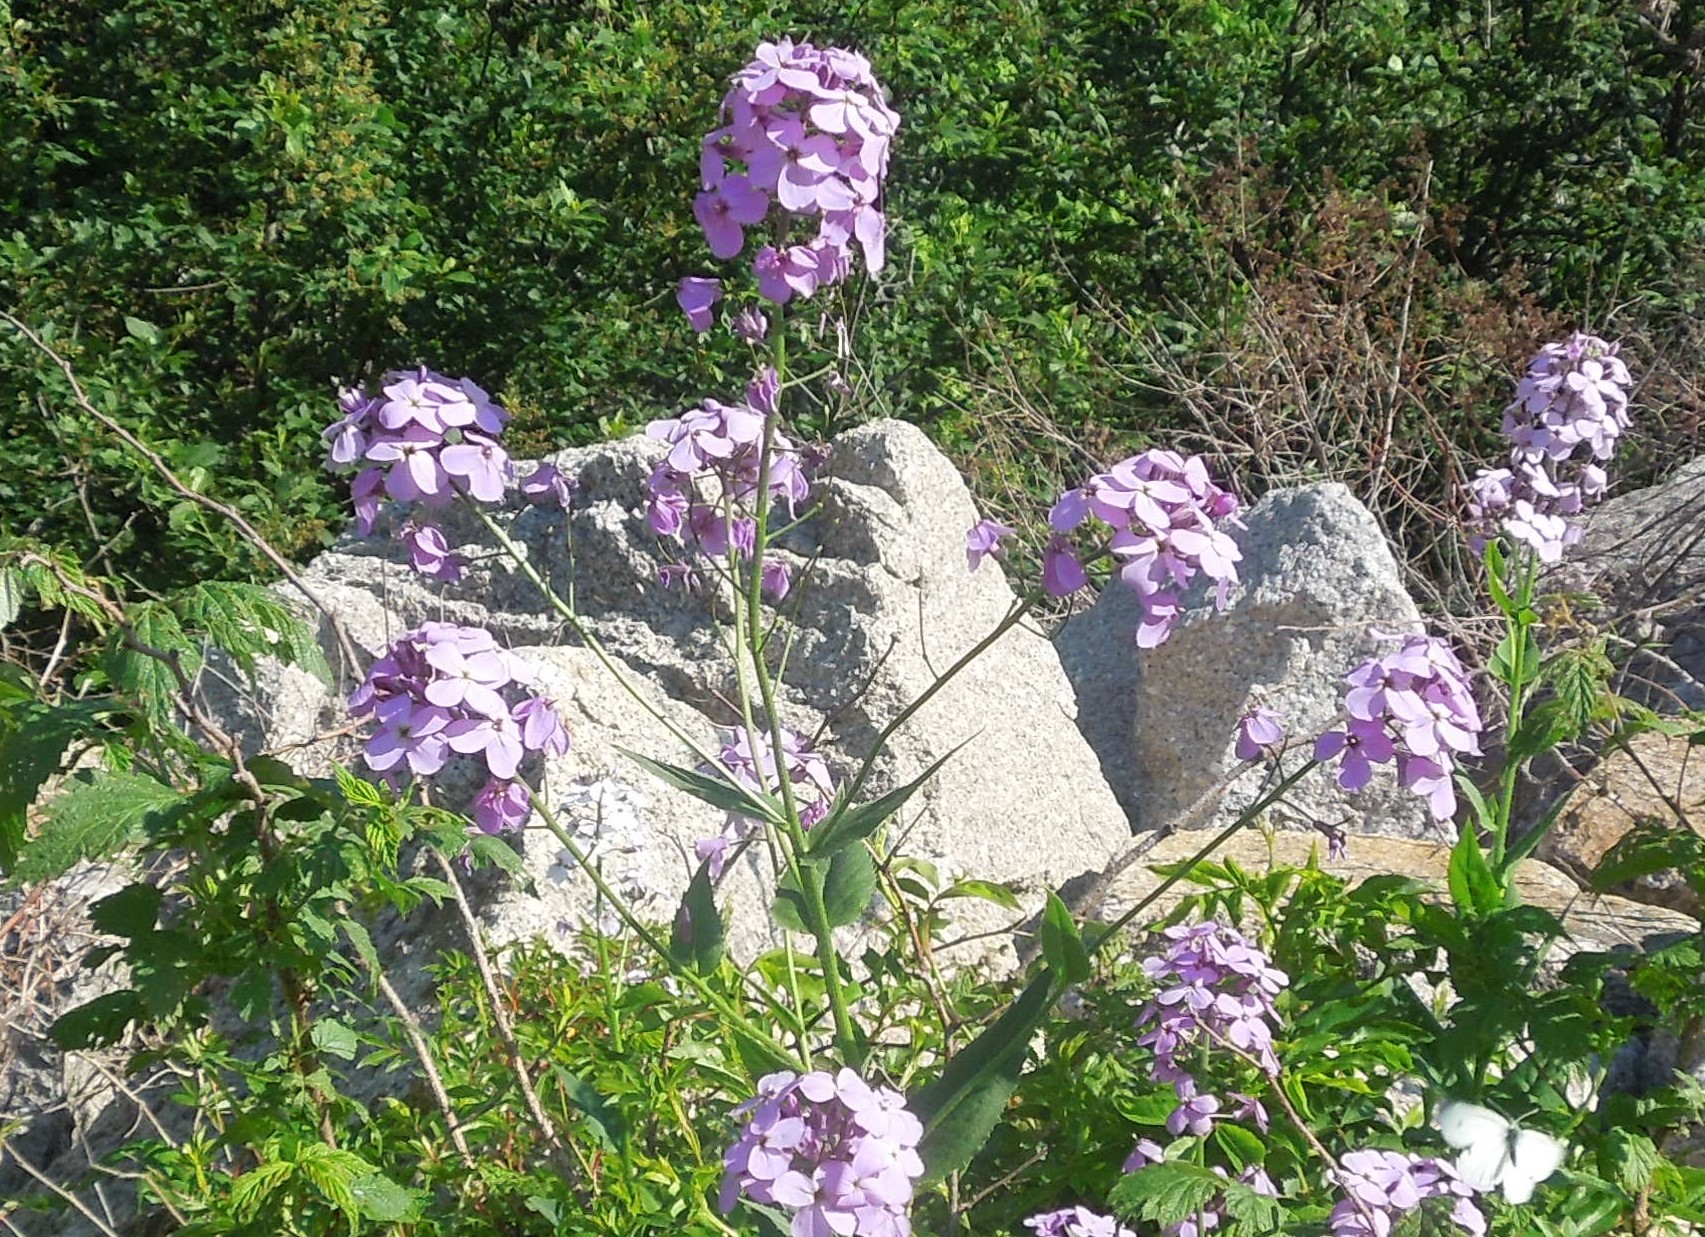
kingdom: Plantae
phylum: Tracheophyta
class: Magnoliopsida
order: Brassicales
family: Brassicaceae
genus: Hesperis
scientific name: Hesperis matronalis
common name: Dame's-violet
